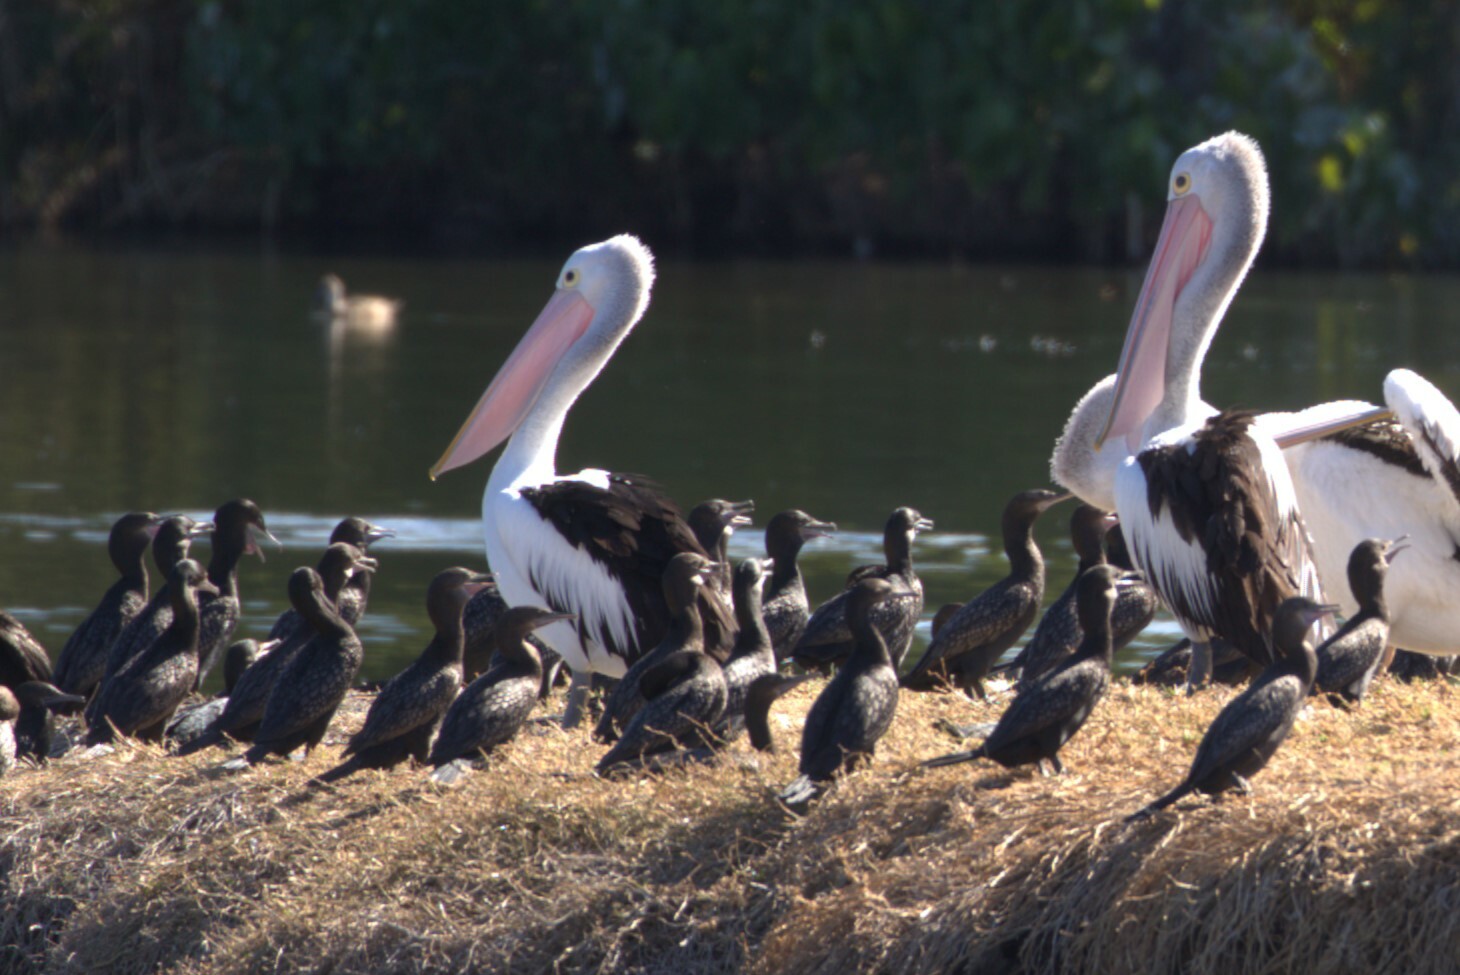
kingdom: Animalia
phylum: Chordata
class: Aves
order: Suliformes
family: Phalacrocoracidae
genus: Phalacrocorax
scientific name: Phalacrocorax sulcirostris
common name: Little black cormorant
